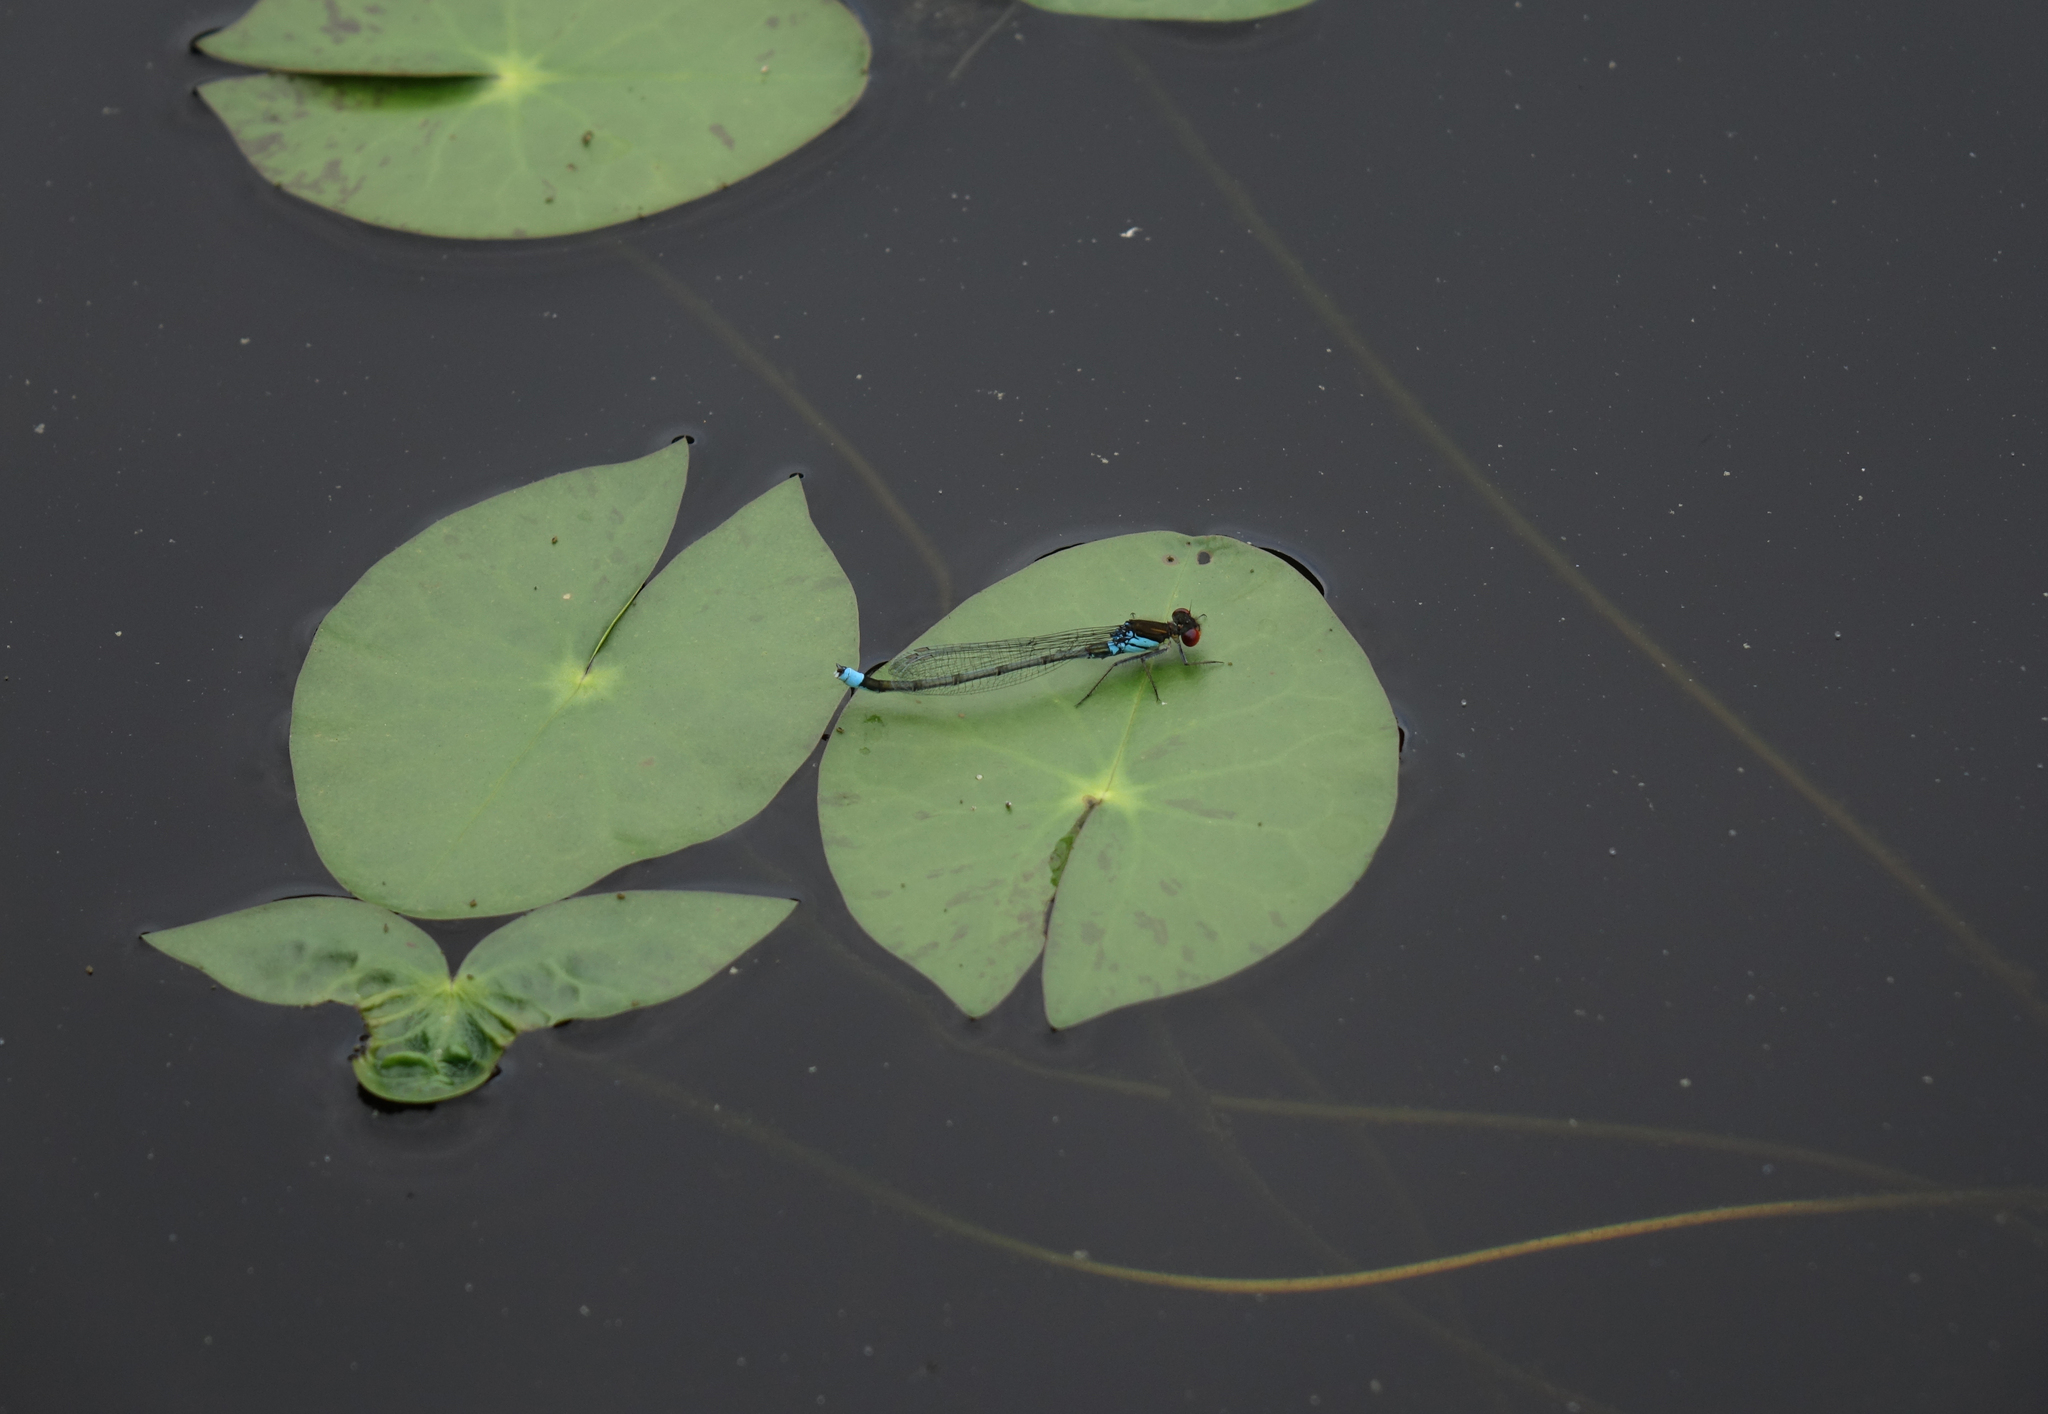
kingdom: Plantae
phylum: Tracheophyta
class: Magnoliopsida
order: Nymphaeales
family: Nymphaeaceae
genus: Nymphaea
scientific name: Nymphaea tetragona
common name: Pygmy water-lily
